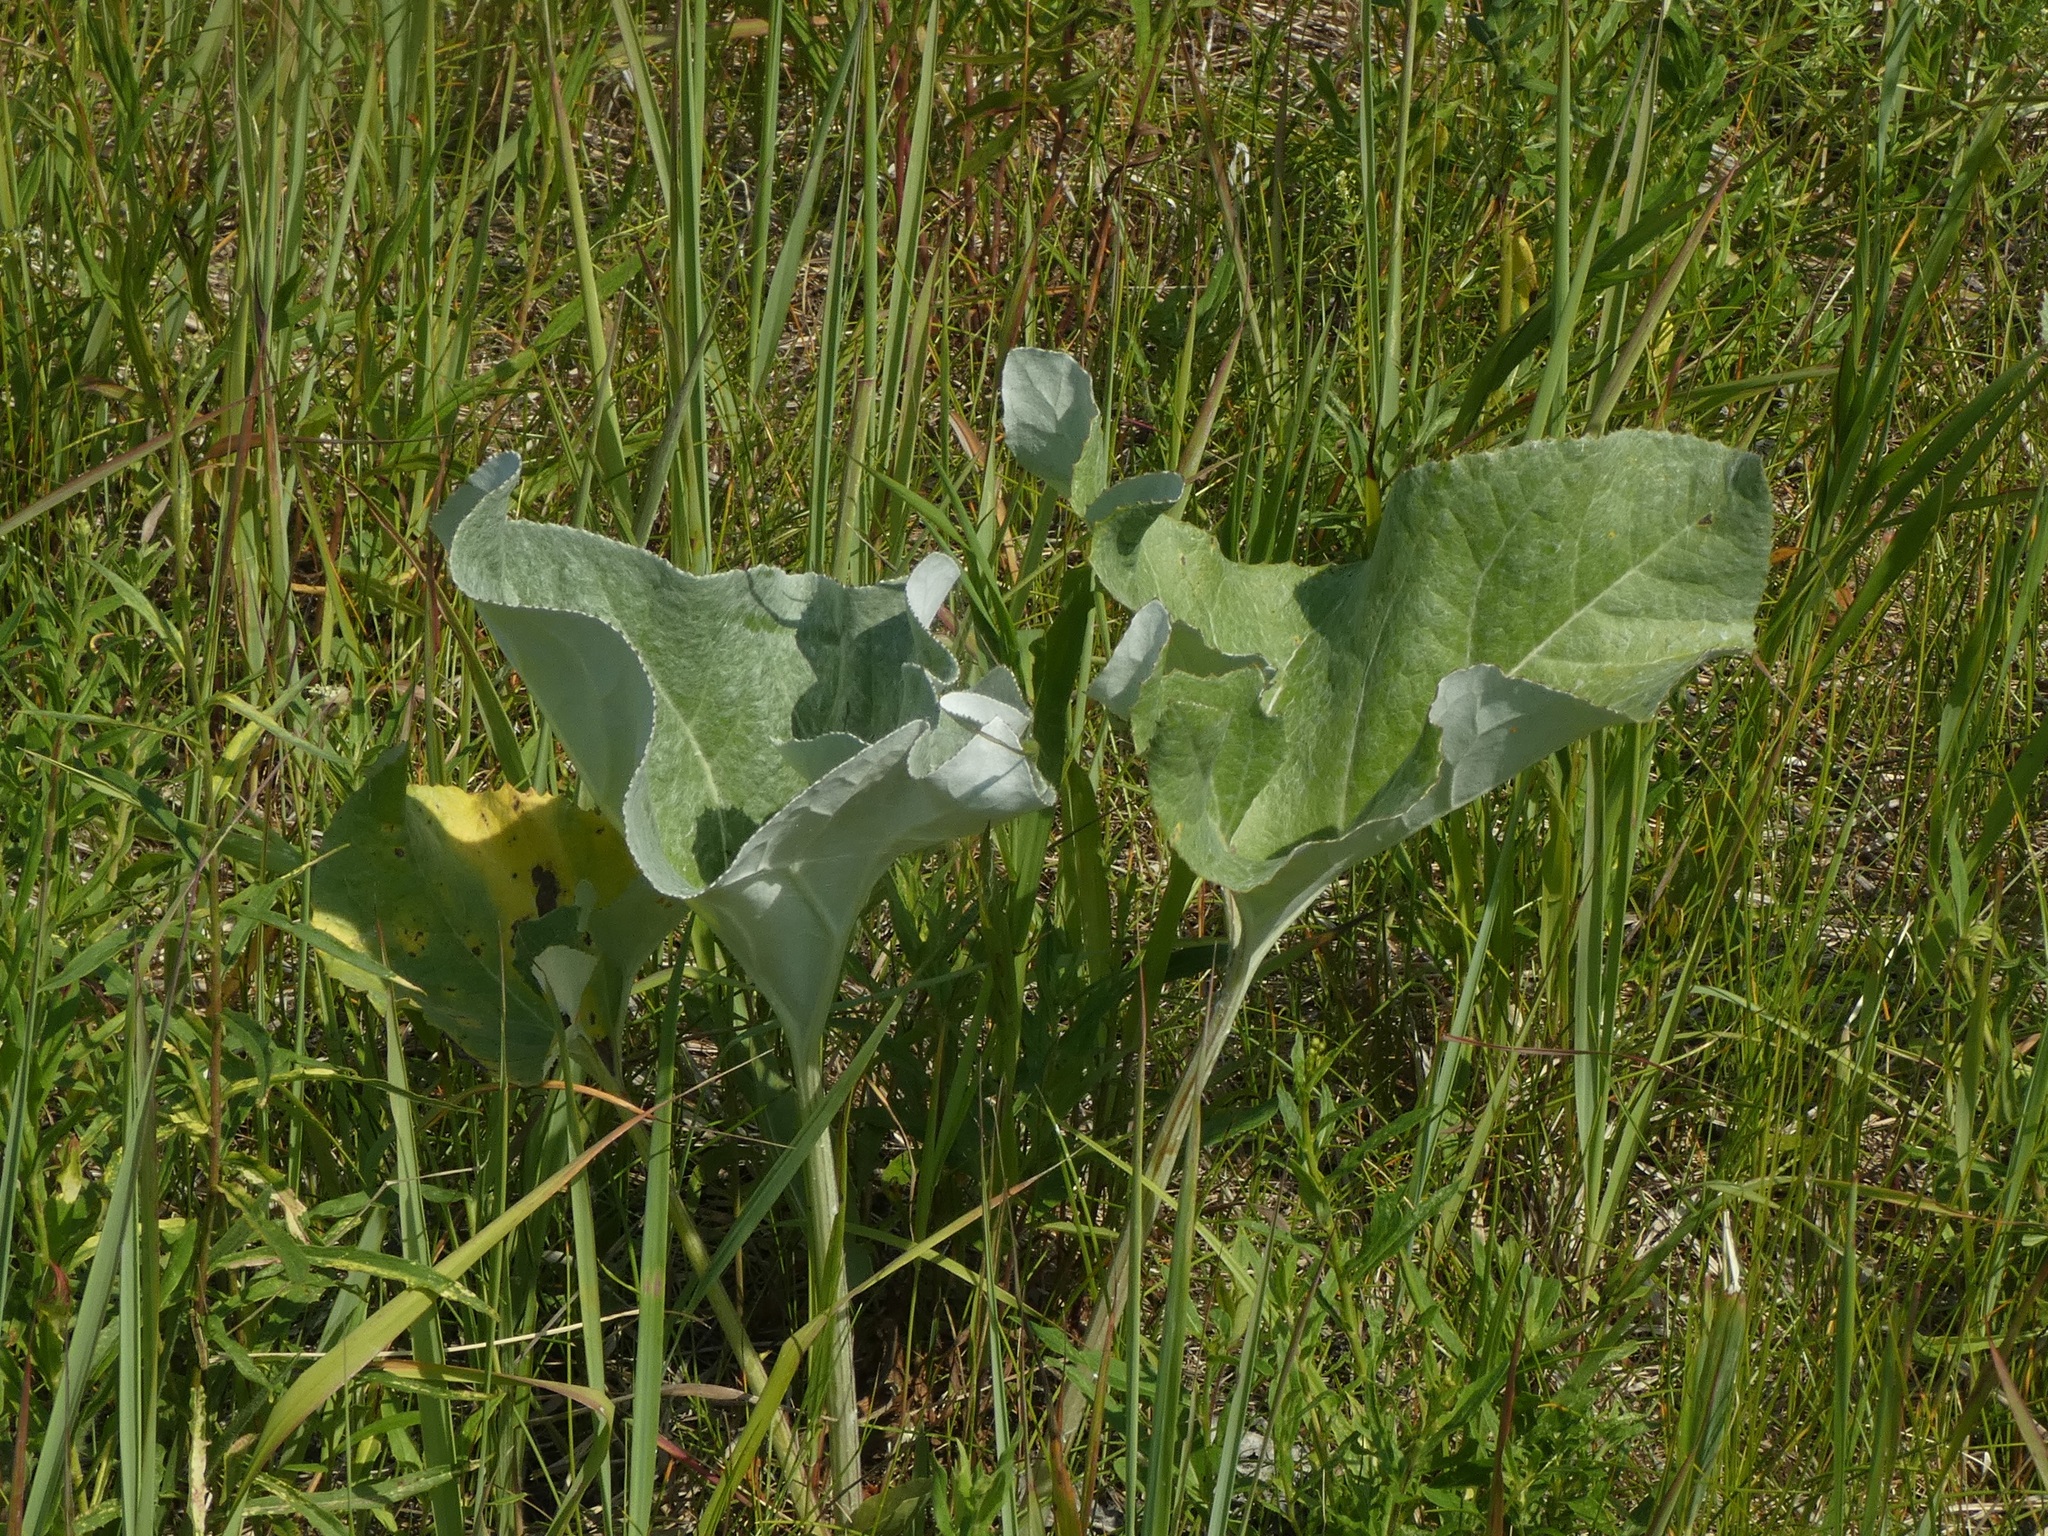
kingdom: Plantae
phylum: Tracheophyta
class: Magnoliopsida
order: Asterales
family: Asteraceae
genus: Petasites
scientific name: Petasites spurius
